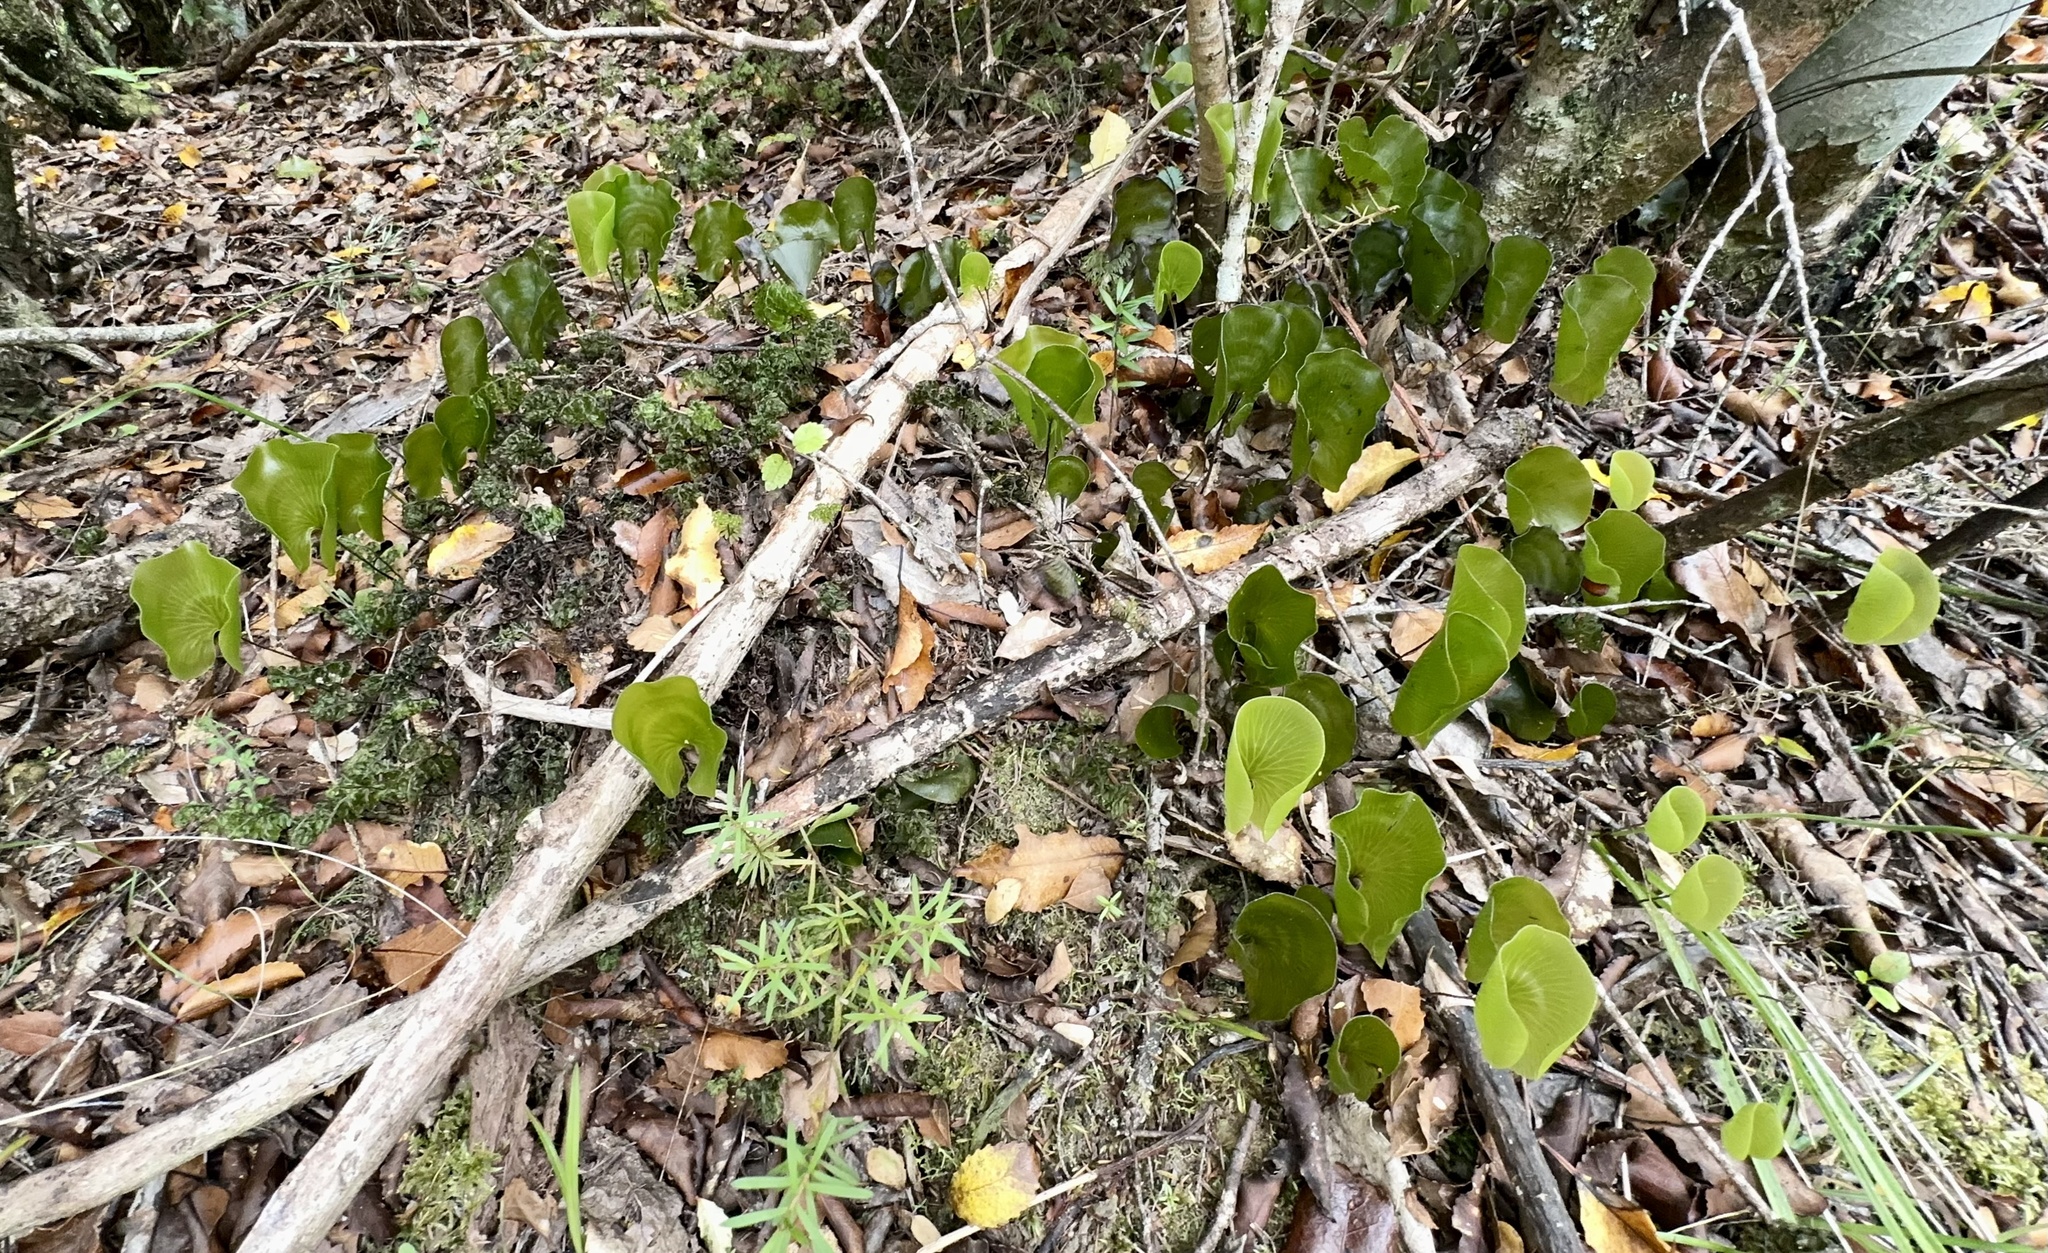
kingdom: Plantae
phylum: Tracheophyta
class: Polypodiopsida
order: Hymenophyllales
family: Hymenophyllaceae
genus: Hymenophyllum
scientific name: Hymenophyllum nephrophyllum
